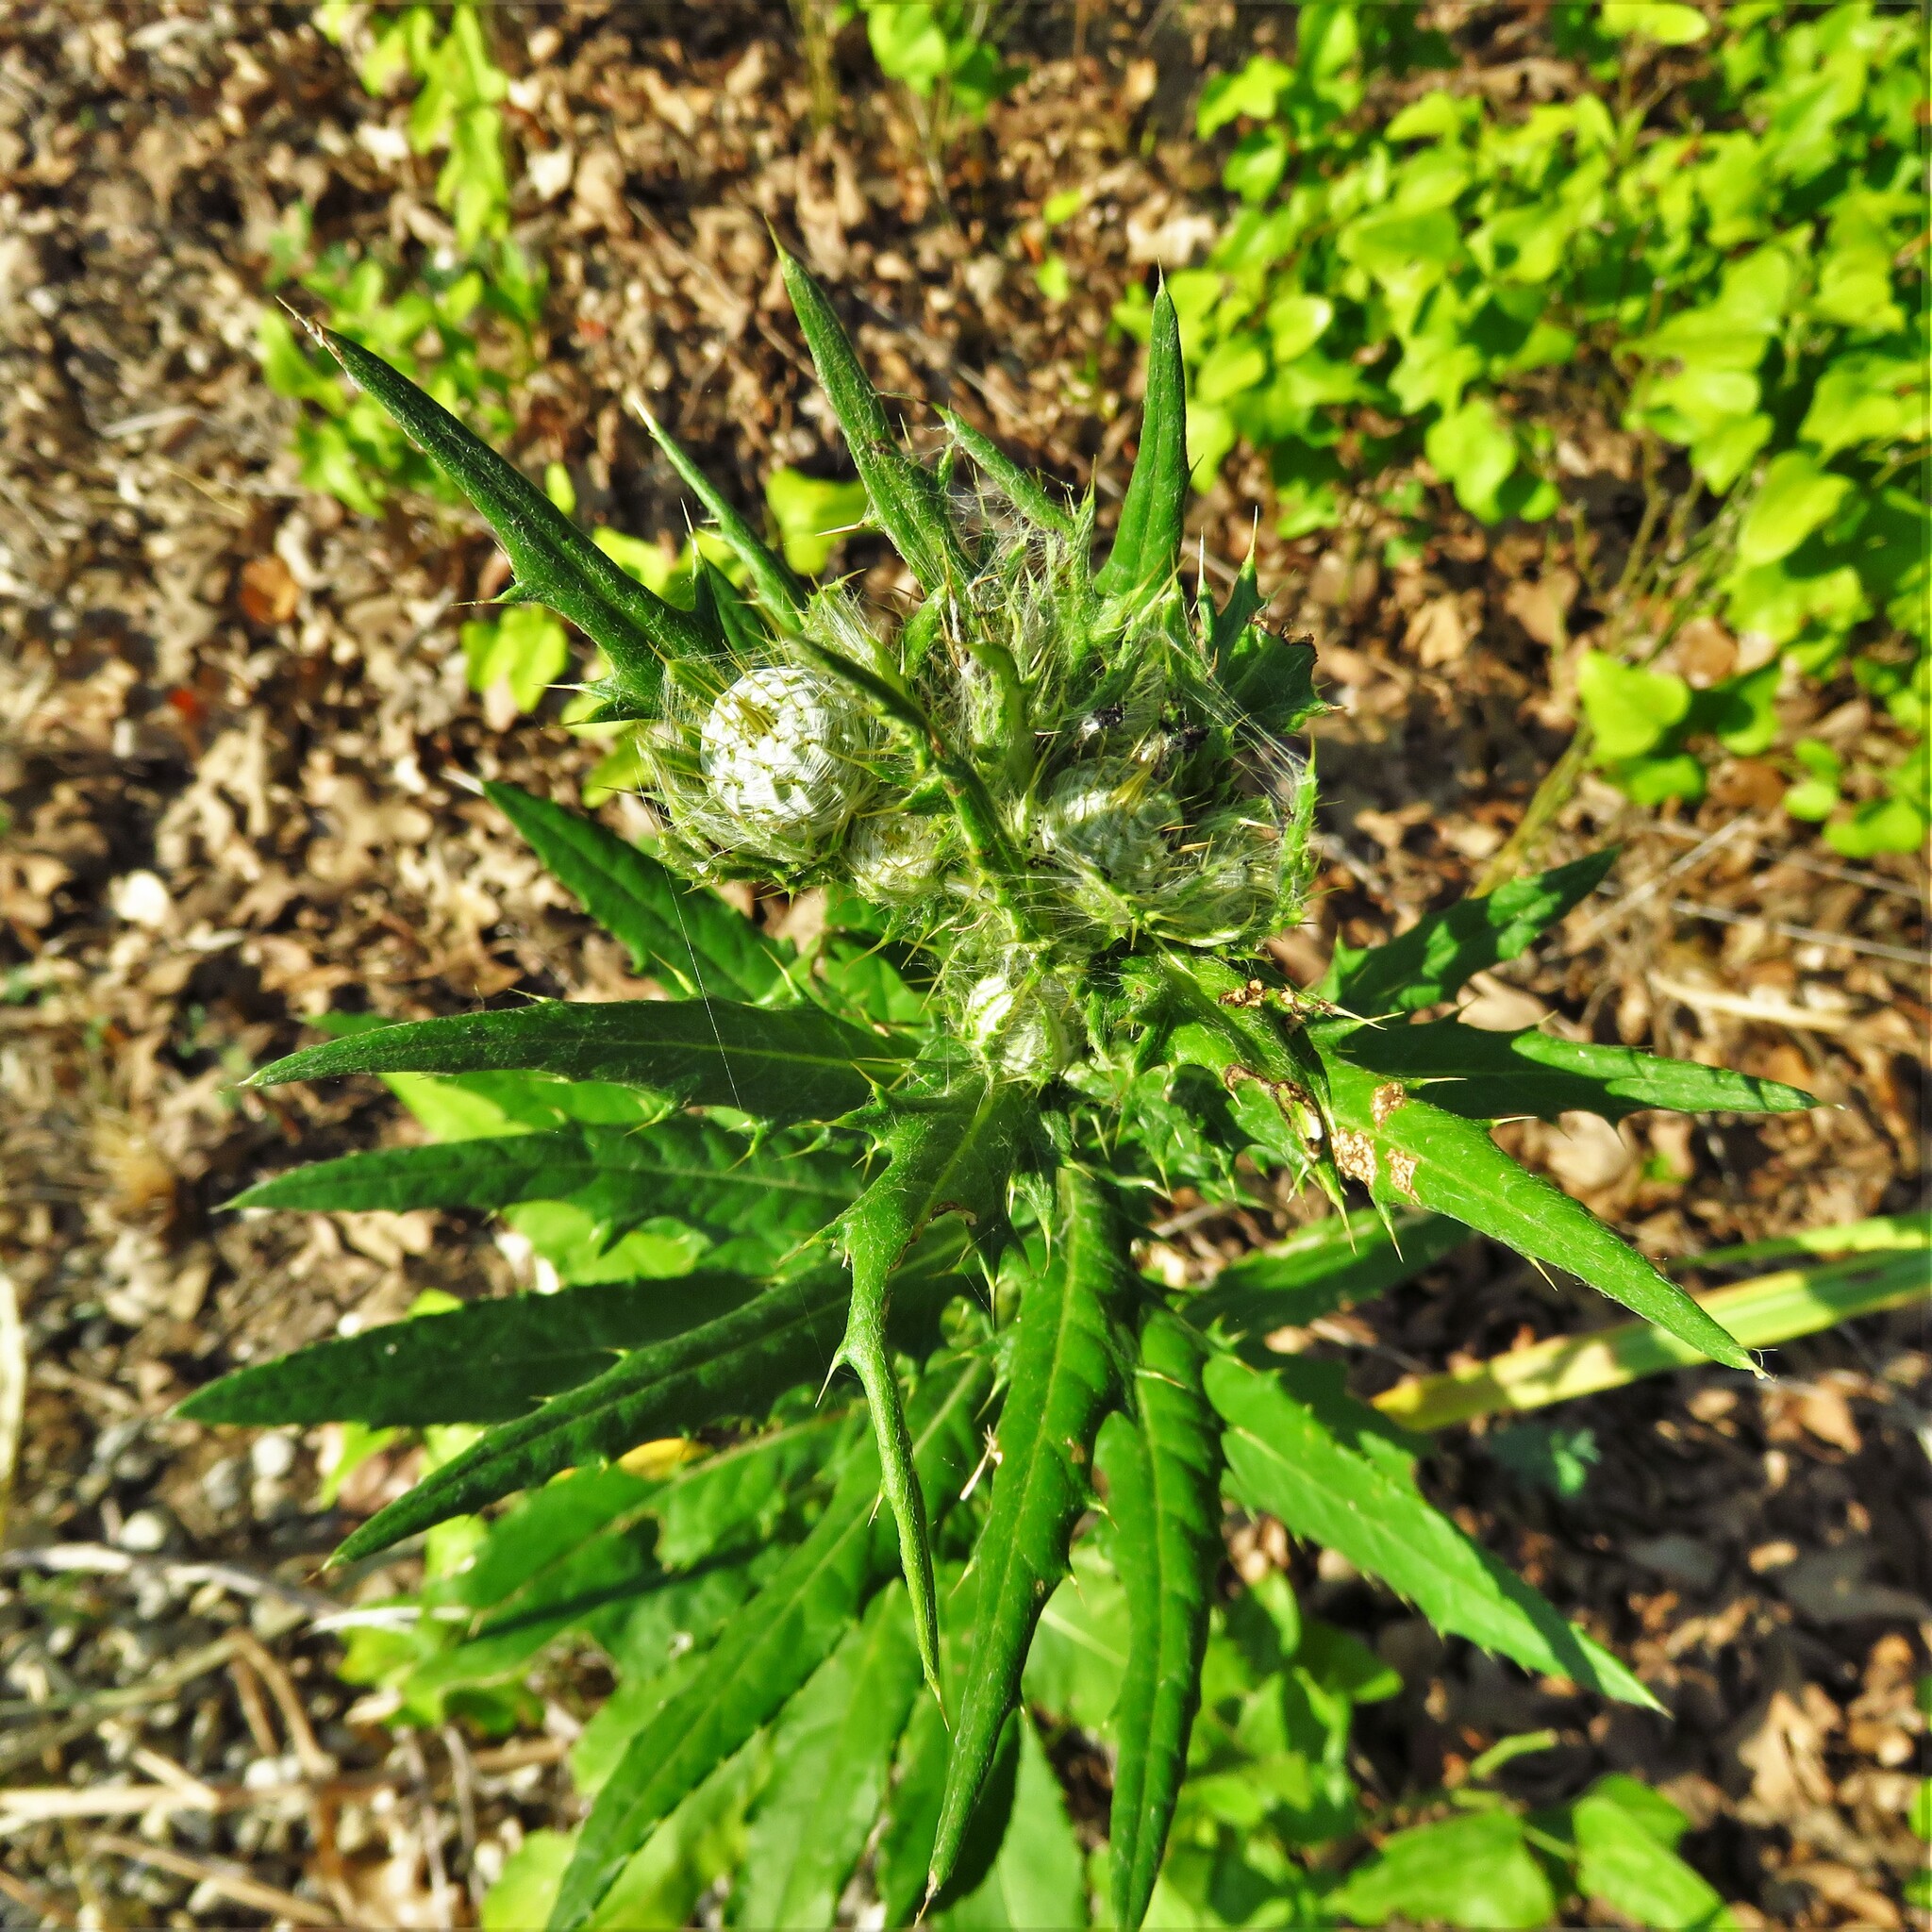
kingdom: Plantae
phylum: Tracheophyta
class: Magnoliopsida
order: Asterales
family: Asteraceae
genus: Cirsium
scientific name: Cirsium altissimum
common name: Roadside thistle
